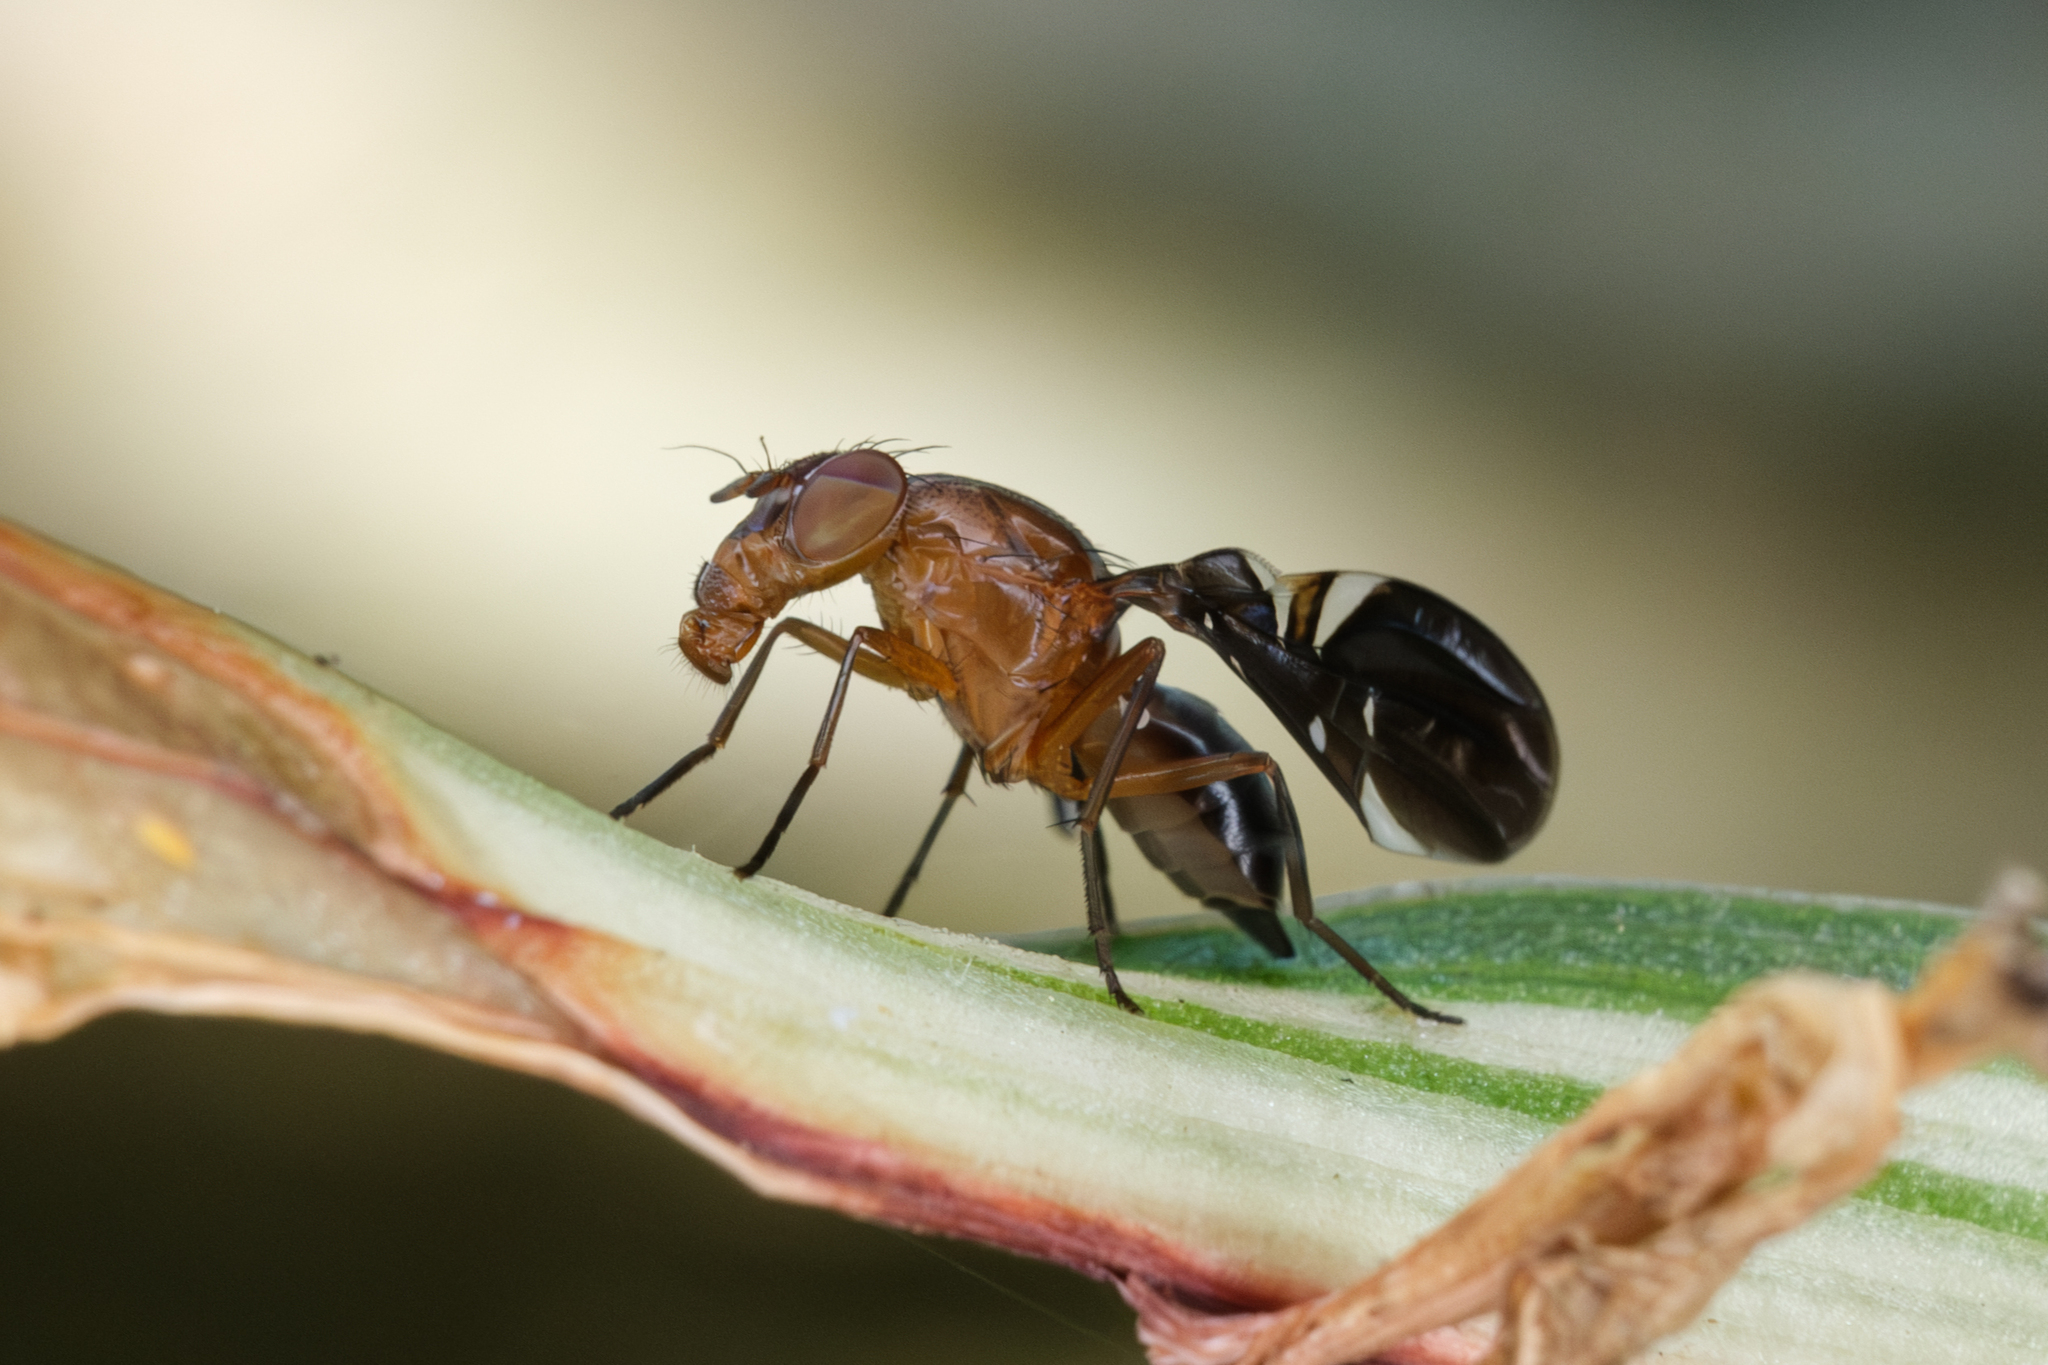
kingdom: Animalia
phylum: Arthropoda
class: Insecta
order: Diptera
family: Ulidiidae
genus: Delphinia
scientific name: Delphinia picta
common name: Common picture-winged fly
